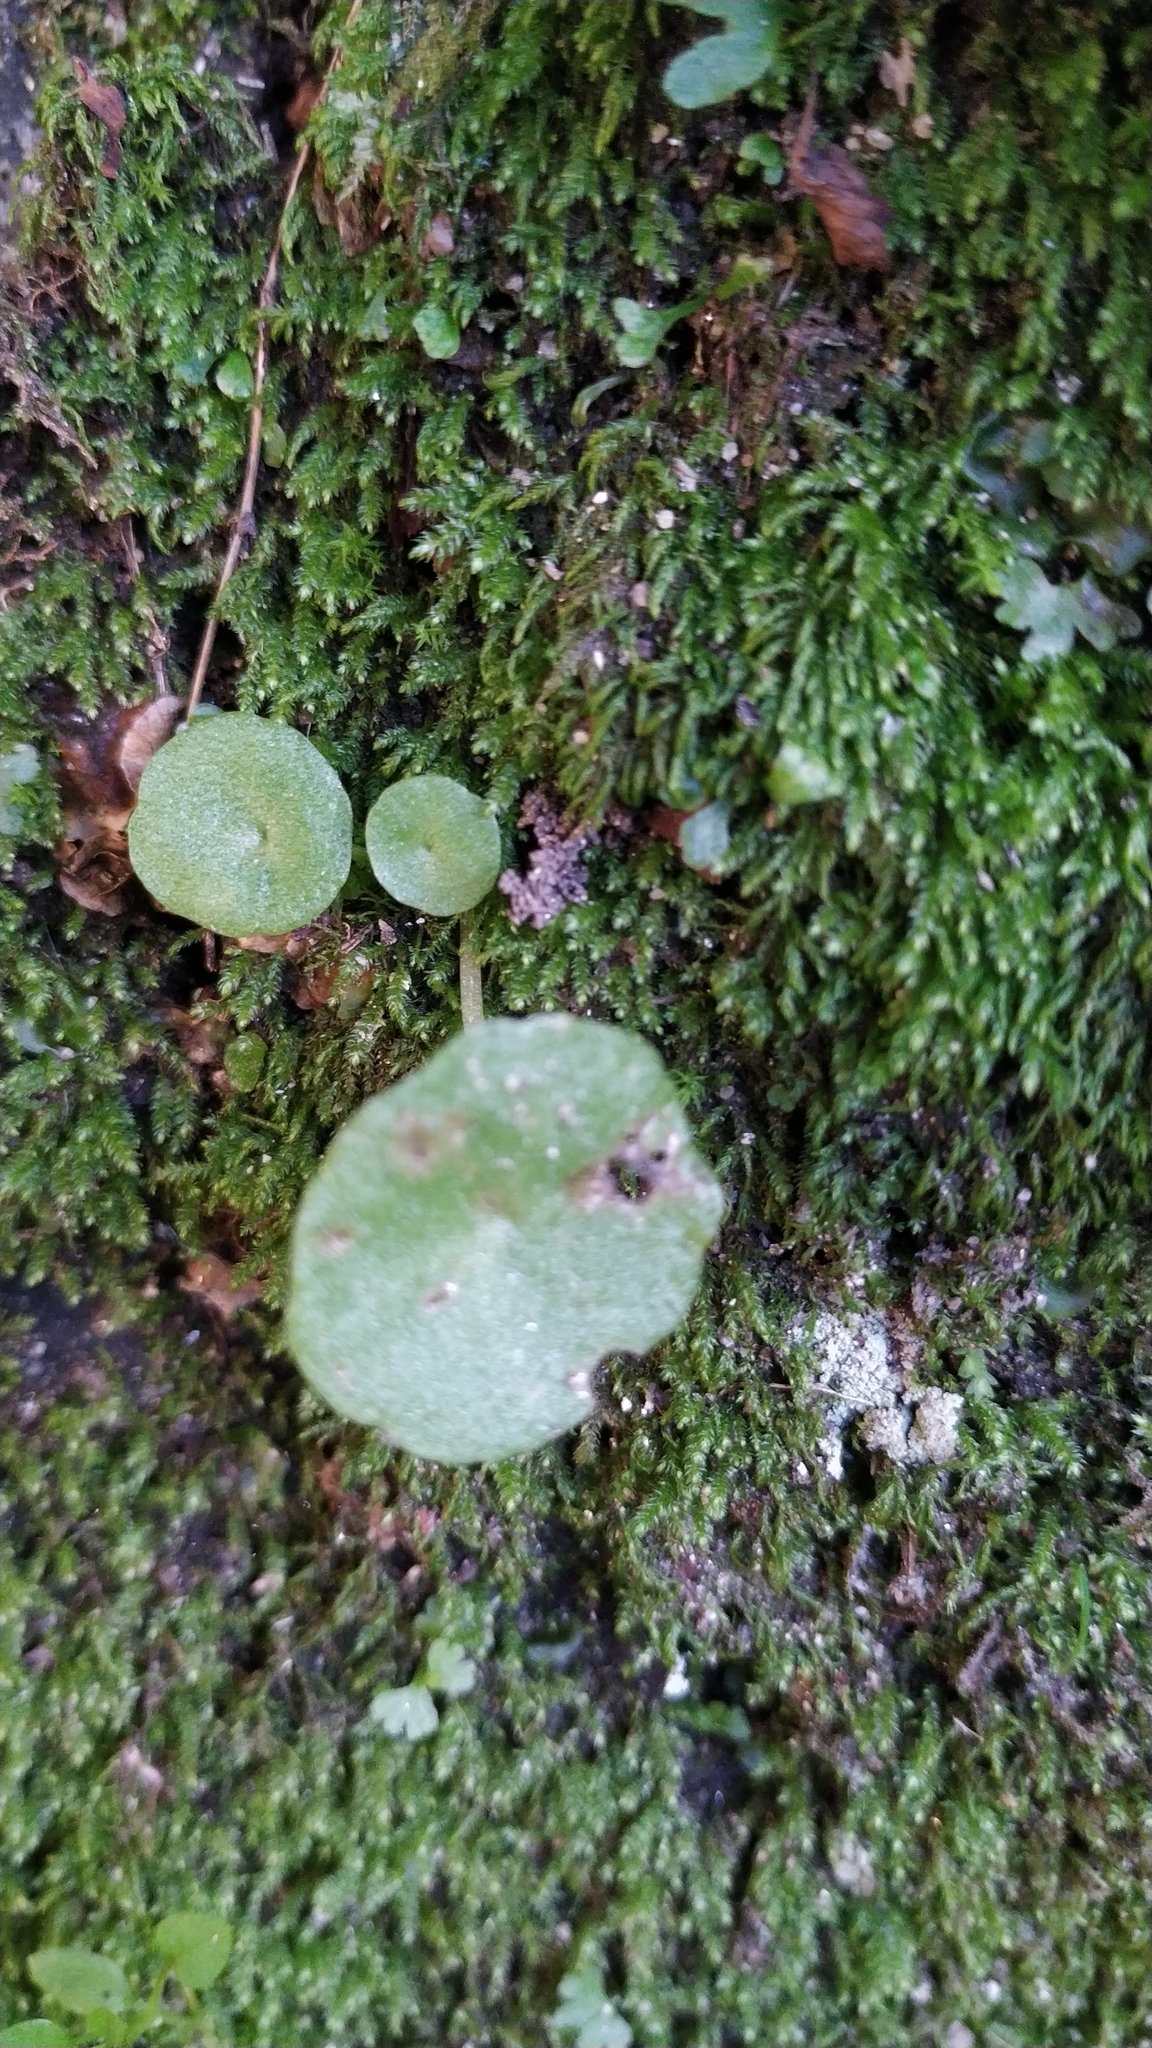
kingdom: Plantae
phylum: Tracheophyta
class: Magnoliopsida
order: Saxifragales
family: Crassulaceae
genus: Umbilicus
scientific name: Umbilicus rupestris
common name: Navelwort
